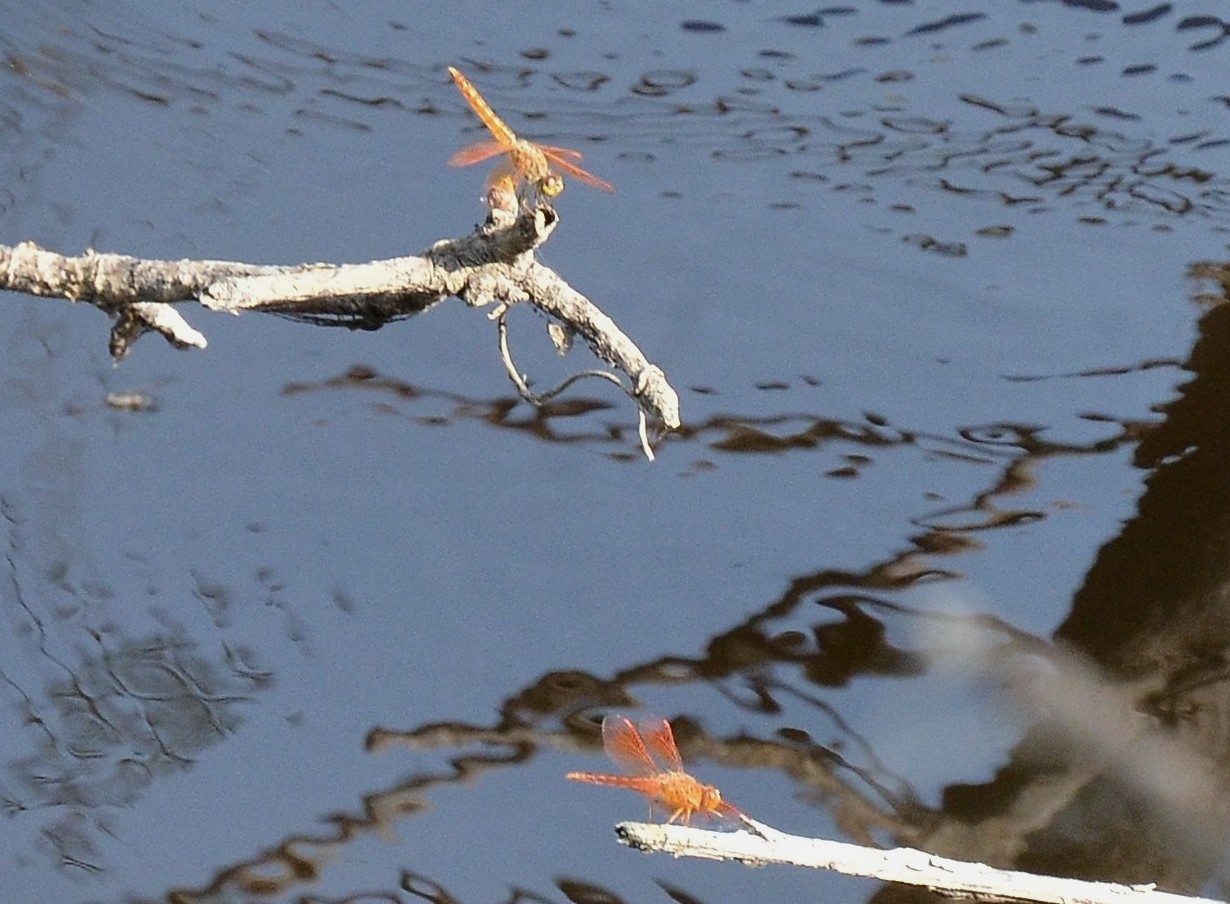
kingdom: Animalia
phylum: Arthropoda
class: Insecta
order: Odonata
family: Libellulidae
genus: Brachythemis
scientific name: Brachythemis contaminata
